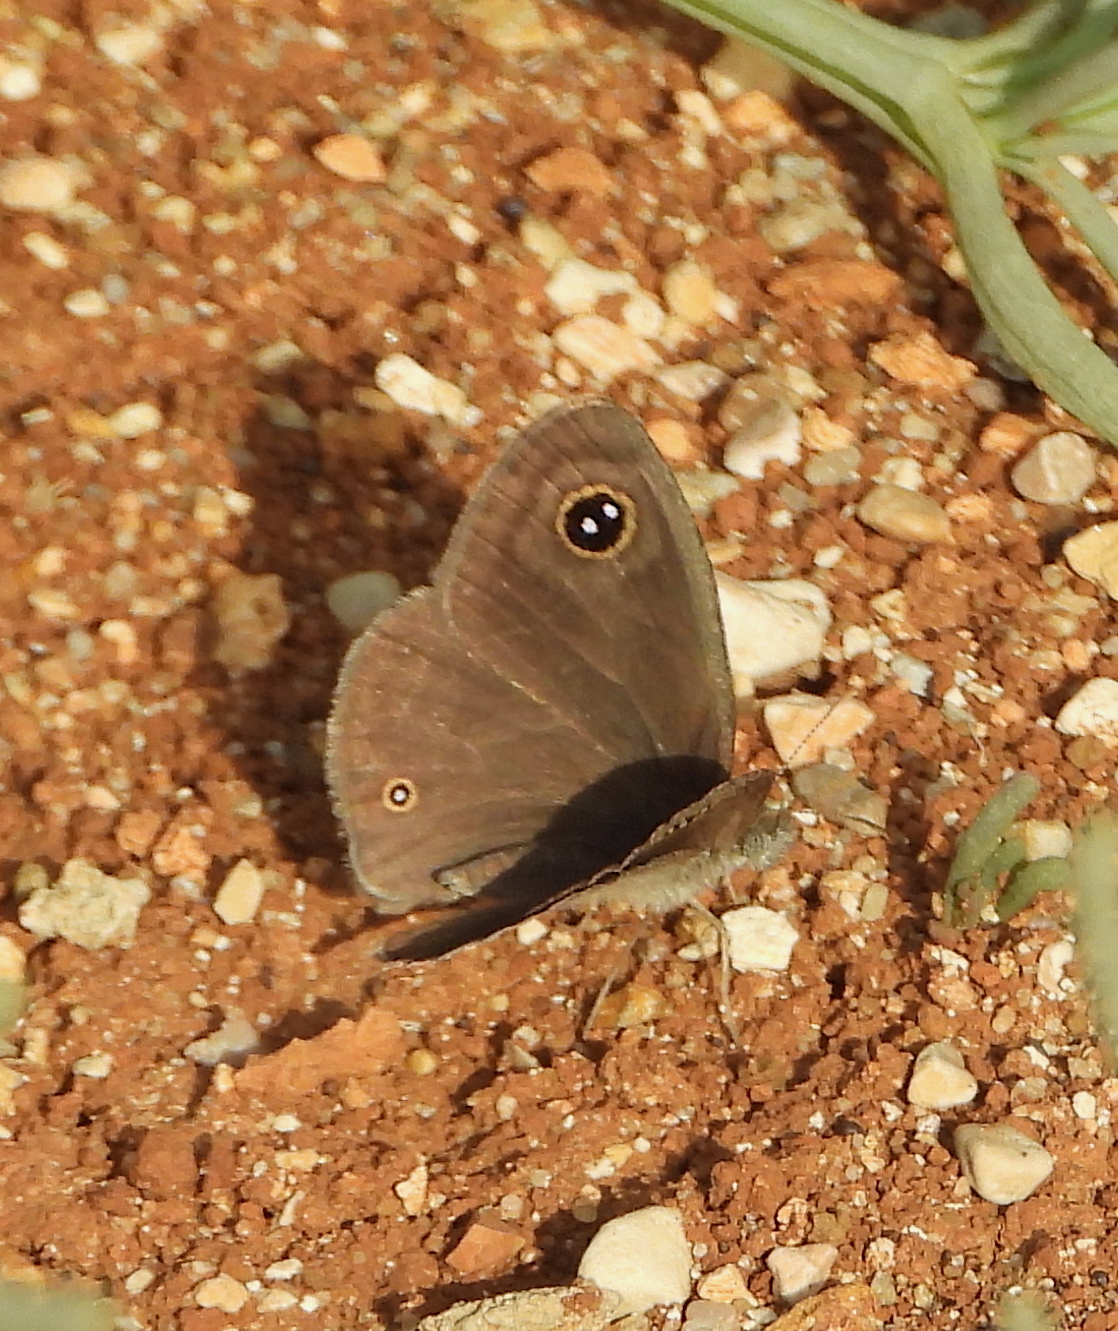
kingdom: Animalia
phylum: Arthropoda
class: Insecta
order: Lepidoptera
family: Nymphalidae
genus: Ypthima
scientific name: Ypthima asterope
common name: African ringlet
